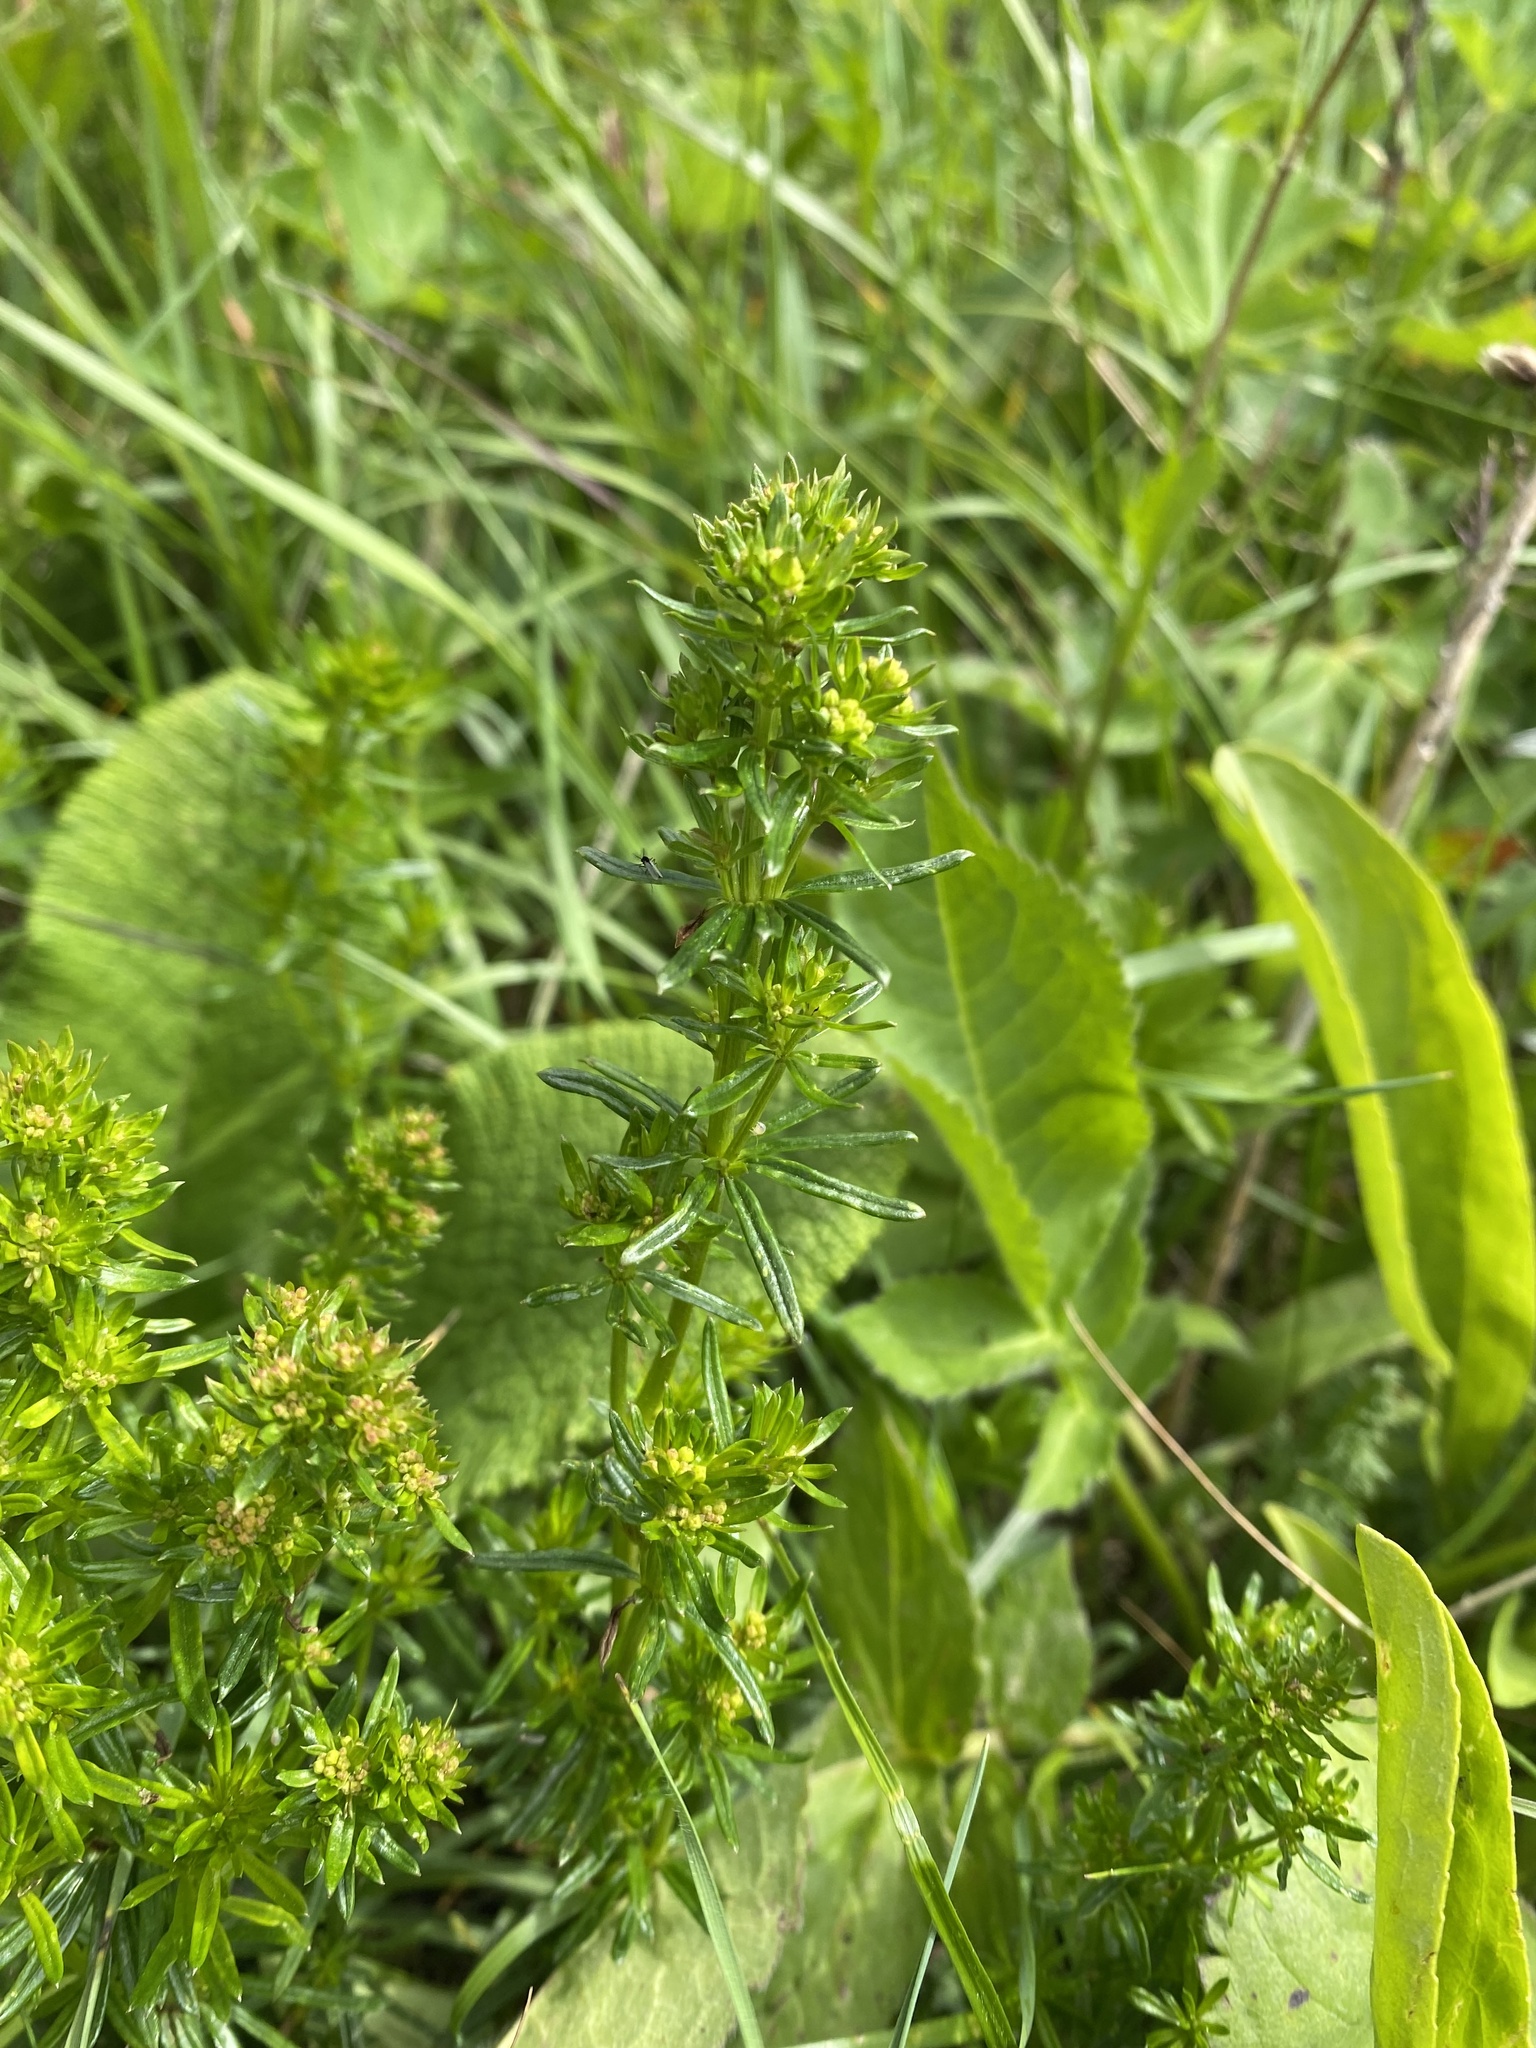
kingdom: Plantae
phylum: Tracheophyta
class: Magnoliopsida
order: Gentianales
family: Rubiaceae
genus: Galium
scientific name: Galium verum
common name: Lady's bedstraw
